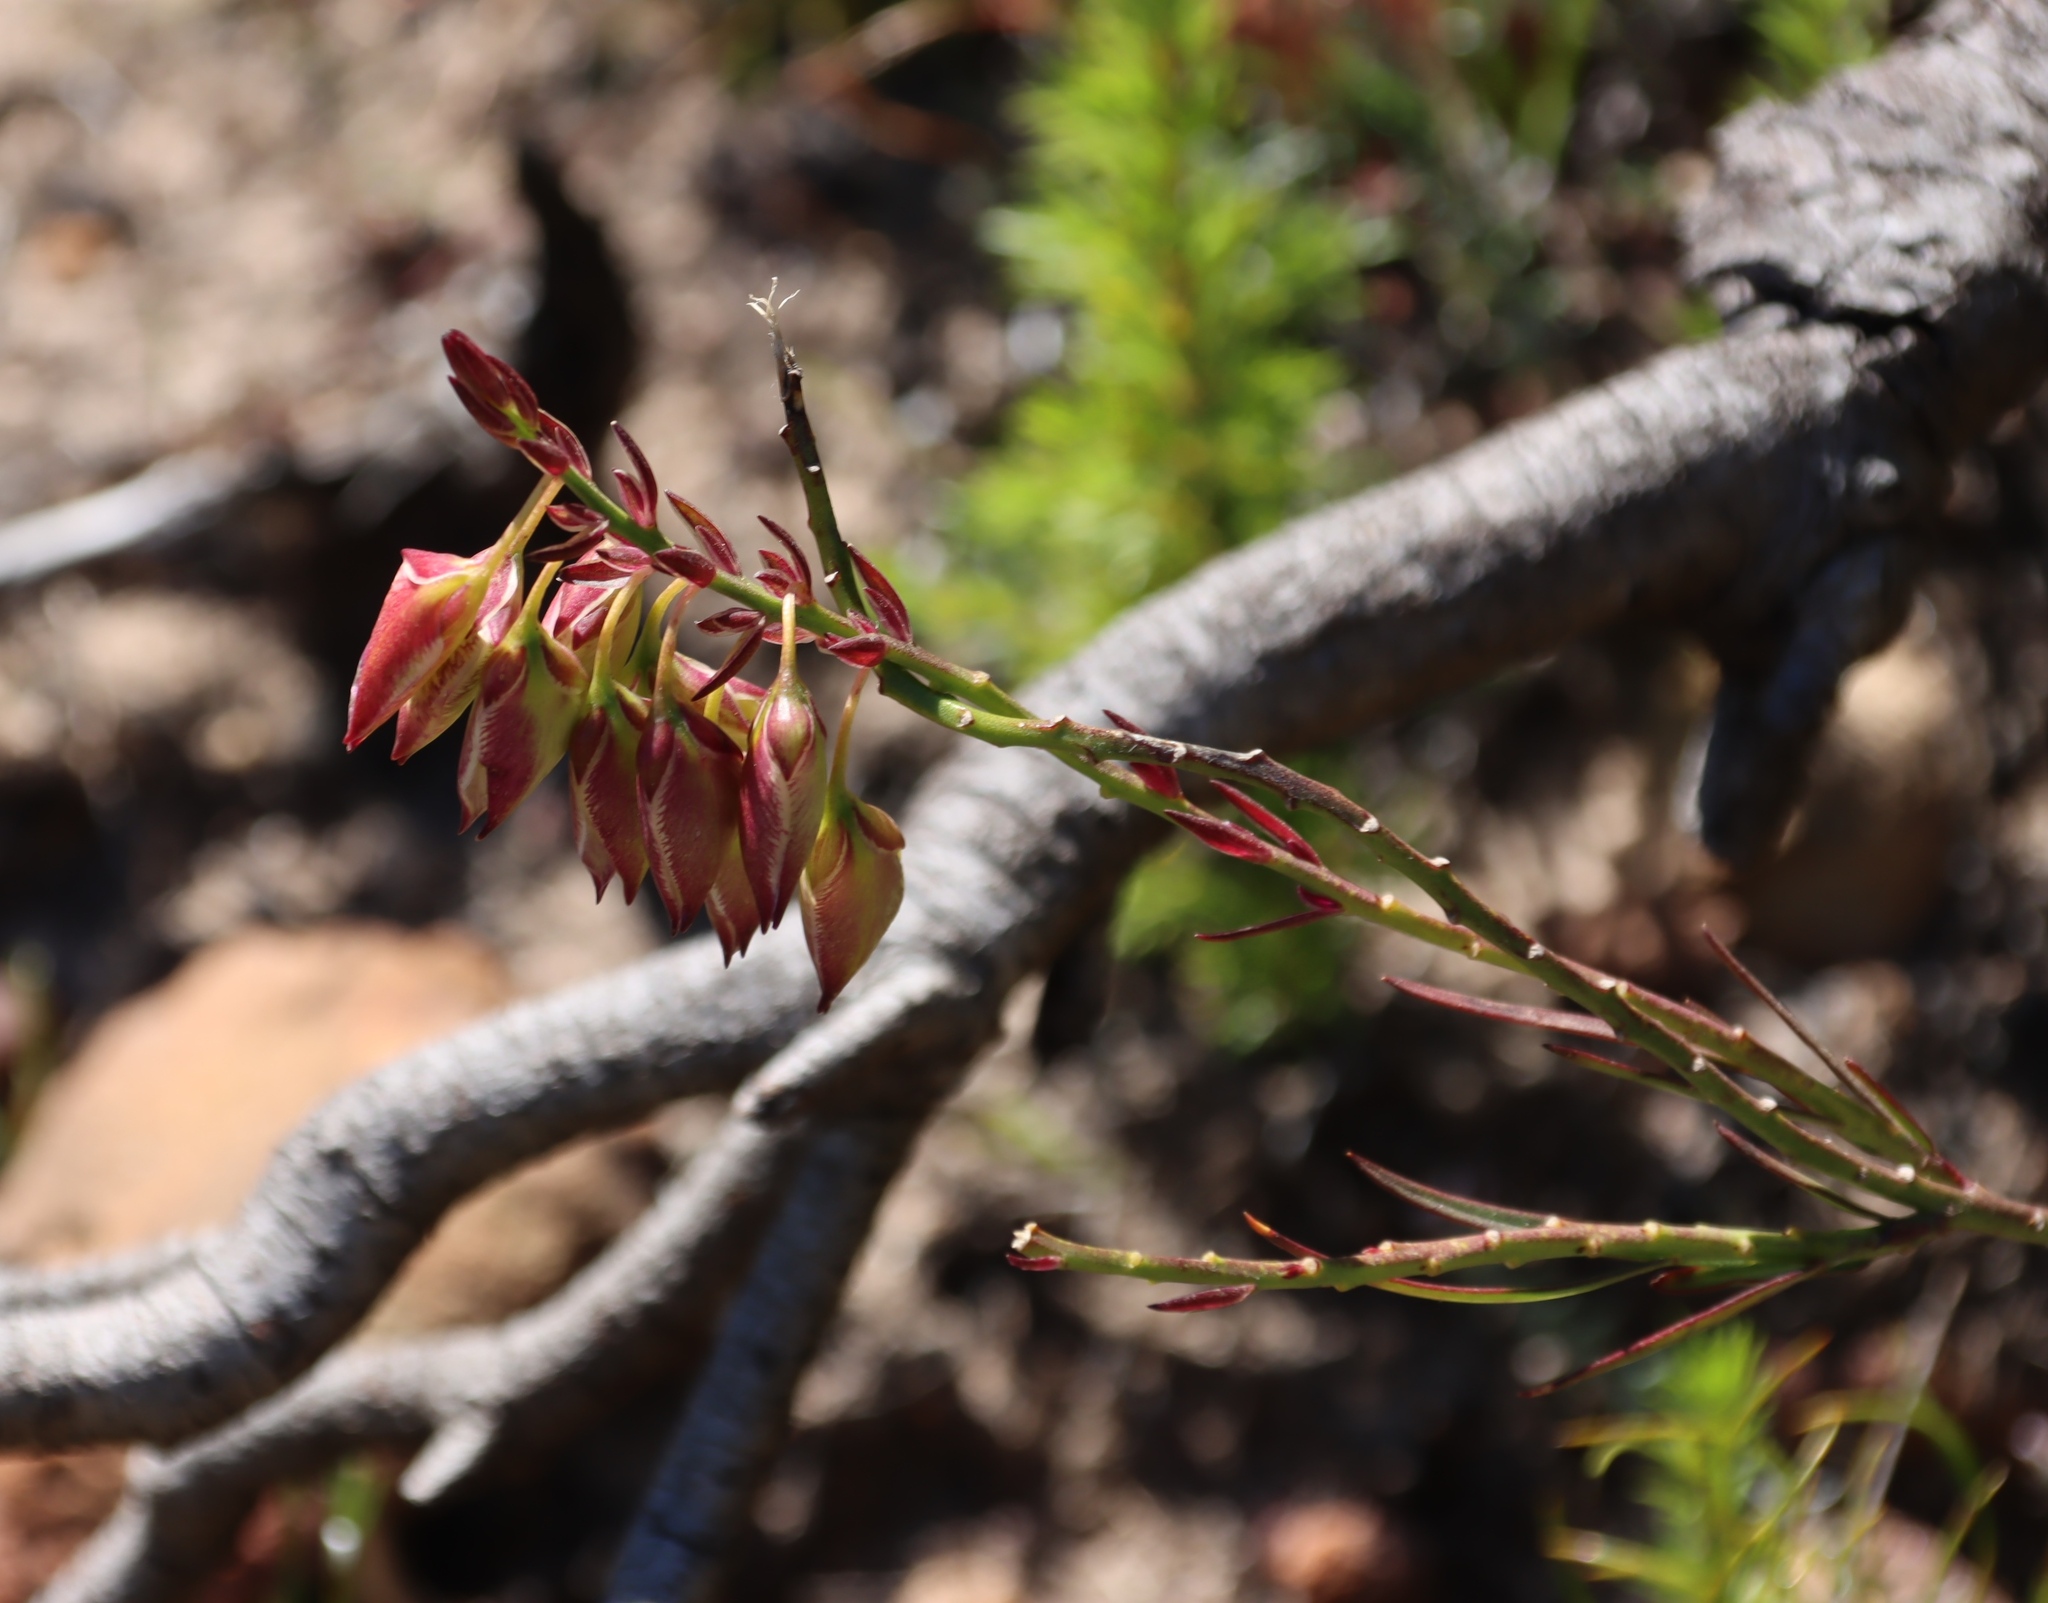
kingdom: Plantae
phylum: Tracheophyta
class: Magnoliopsida
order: Fabales
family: Polygalaceae
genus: Polygala
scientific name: Polygala bracteolata
